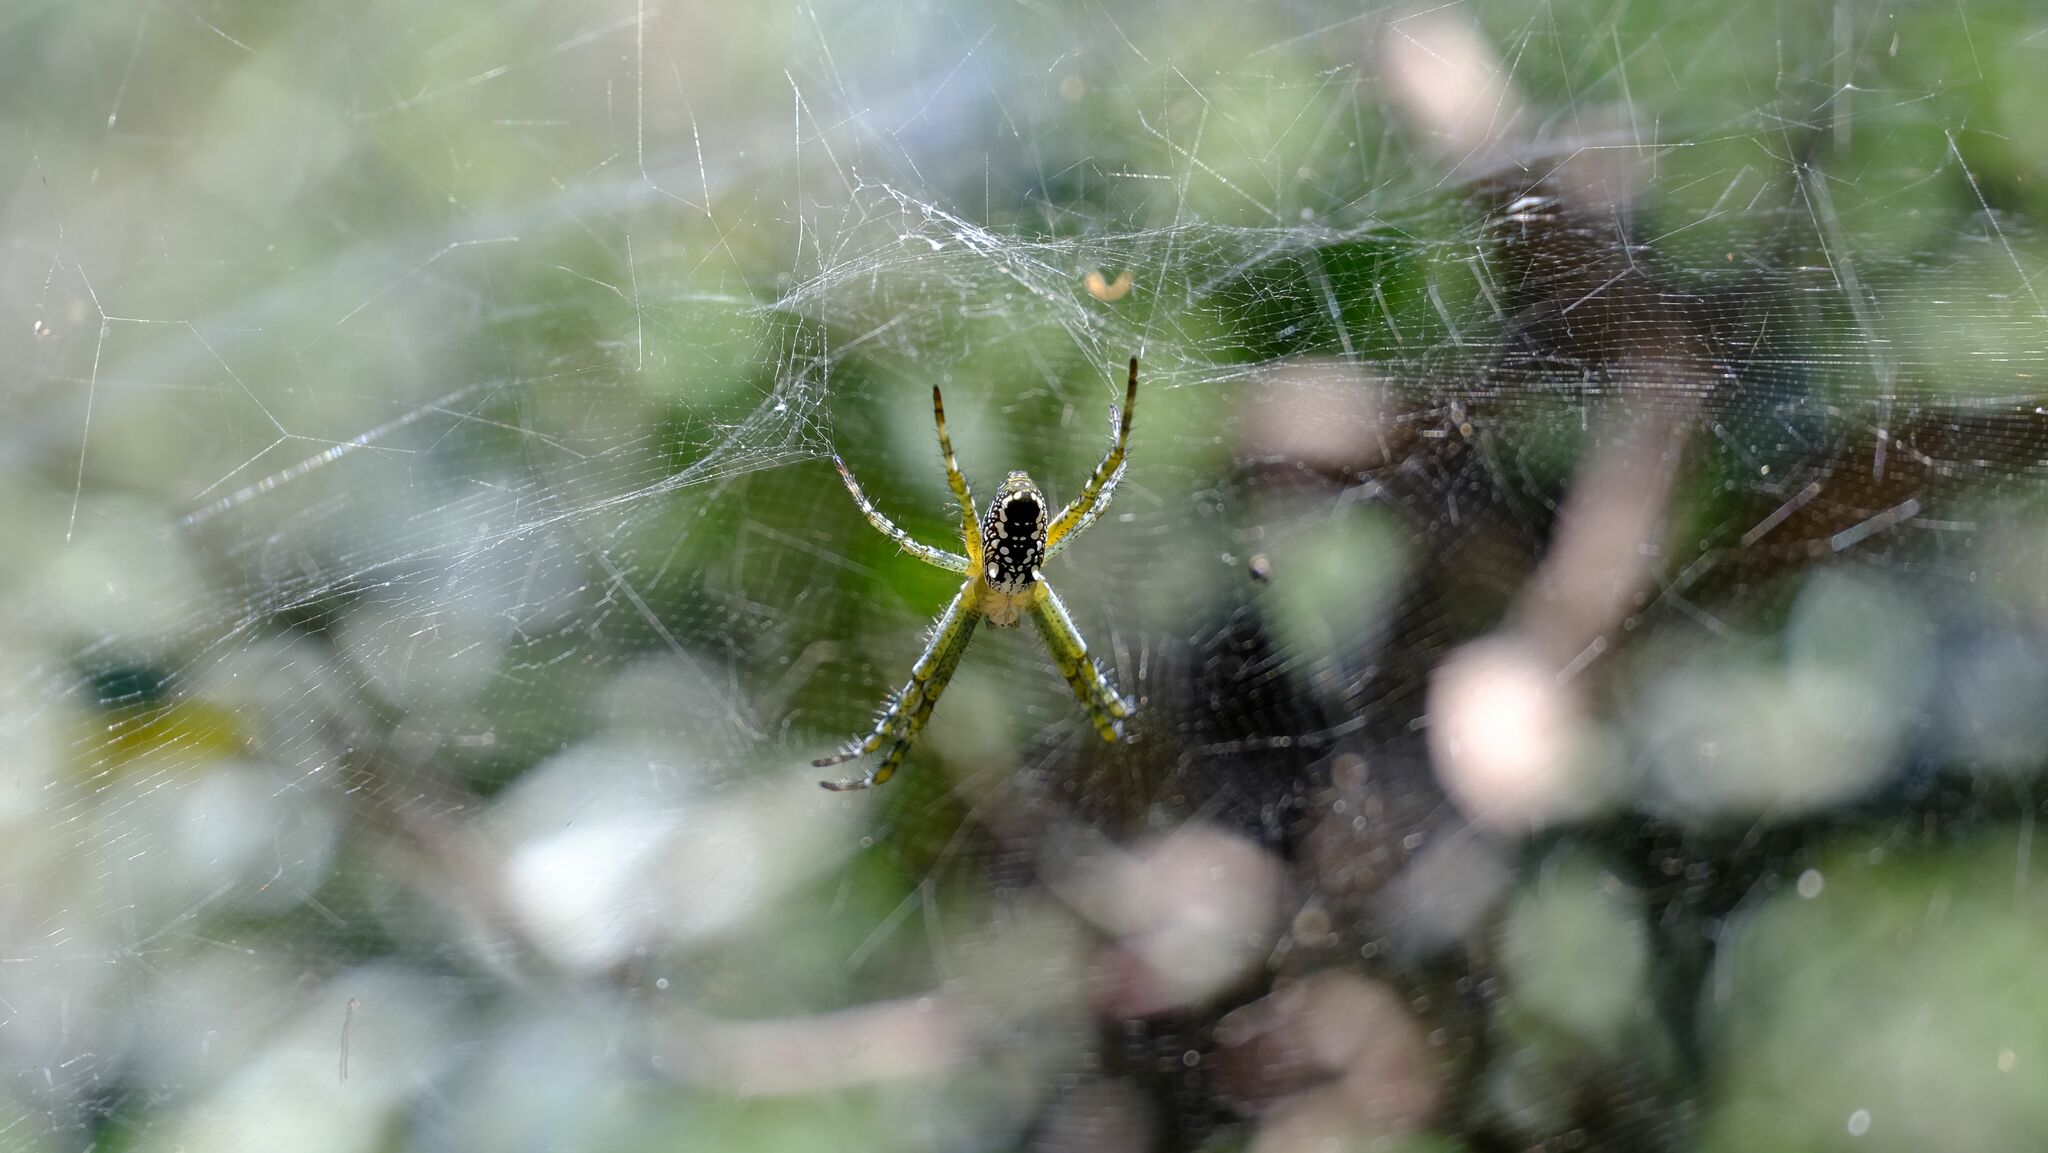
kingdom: Chromista
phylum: Ochrophyta
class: Dictyochophyceae
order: Pedinellales
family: Cyrtophoraceae
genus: Cyrtophora
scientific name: Cyrtophora moluccensis
